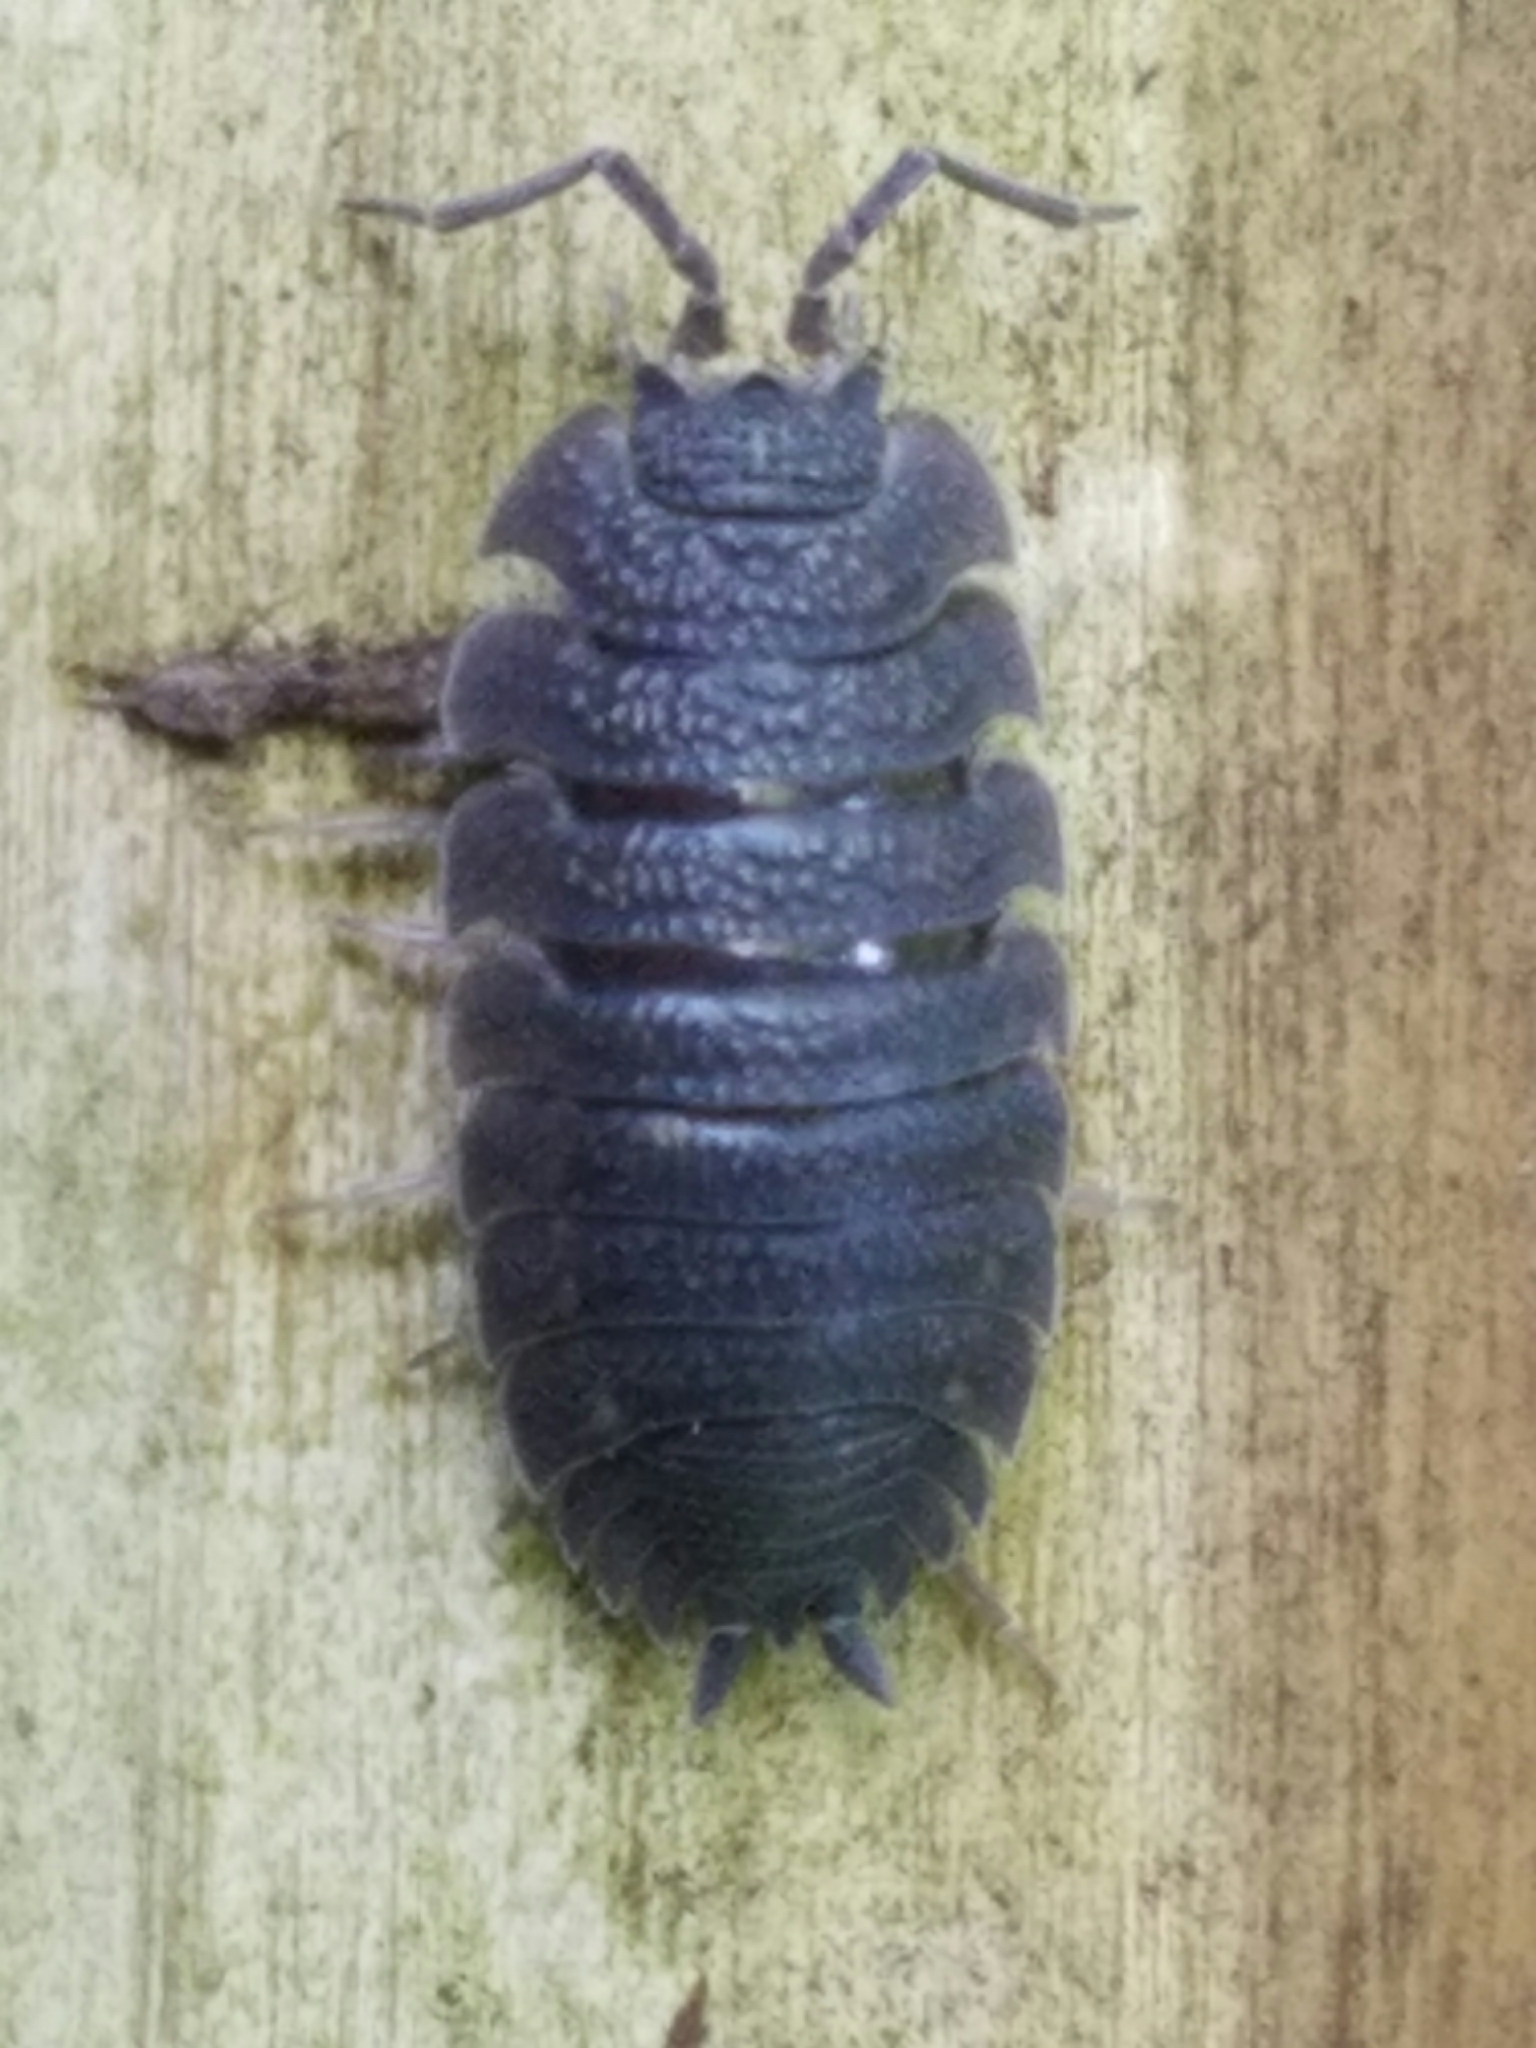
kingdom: Animalia
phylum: Arthropoda
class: Malacostraca
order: Isopoda
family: Porcellionidae
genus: Porcellio
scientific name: Porcellio scaber
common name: Common rough woodlouse
